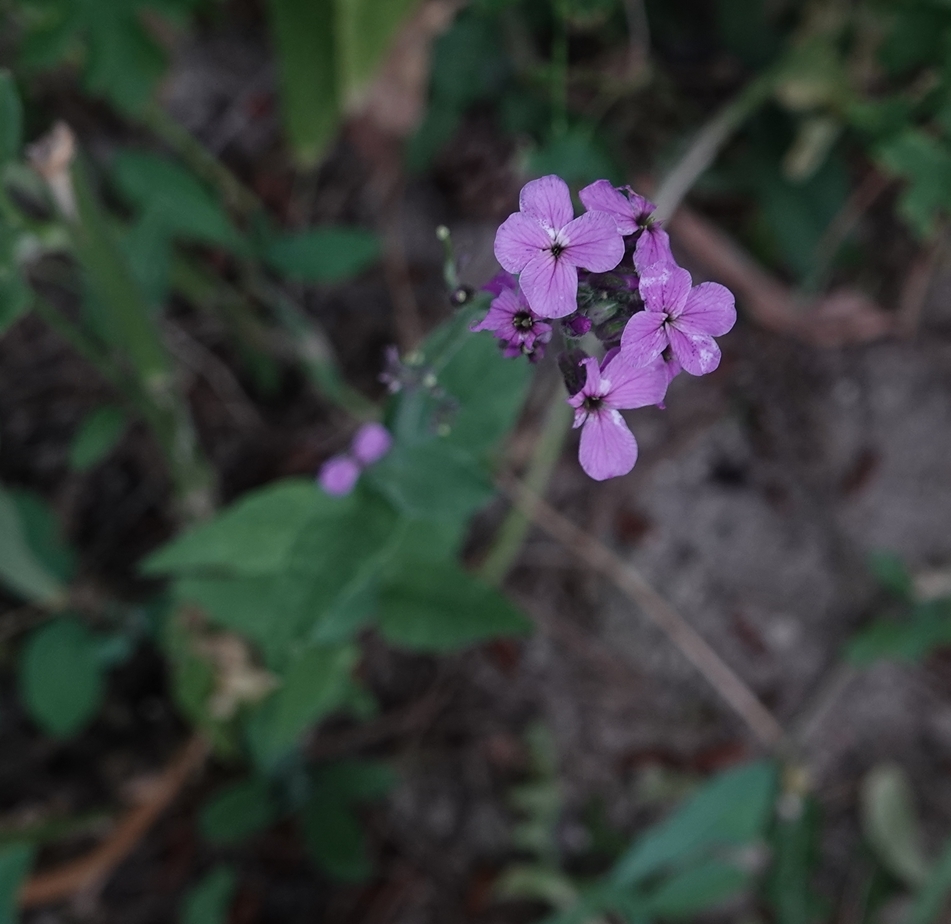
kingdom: Plantae
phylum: Tracheophyta
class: Magnoliopsida
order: Brassicales
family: Brassicaceae
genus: Hesperis
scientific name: Hesperis matronalis
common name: Dame's-violet
